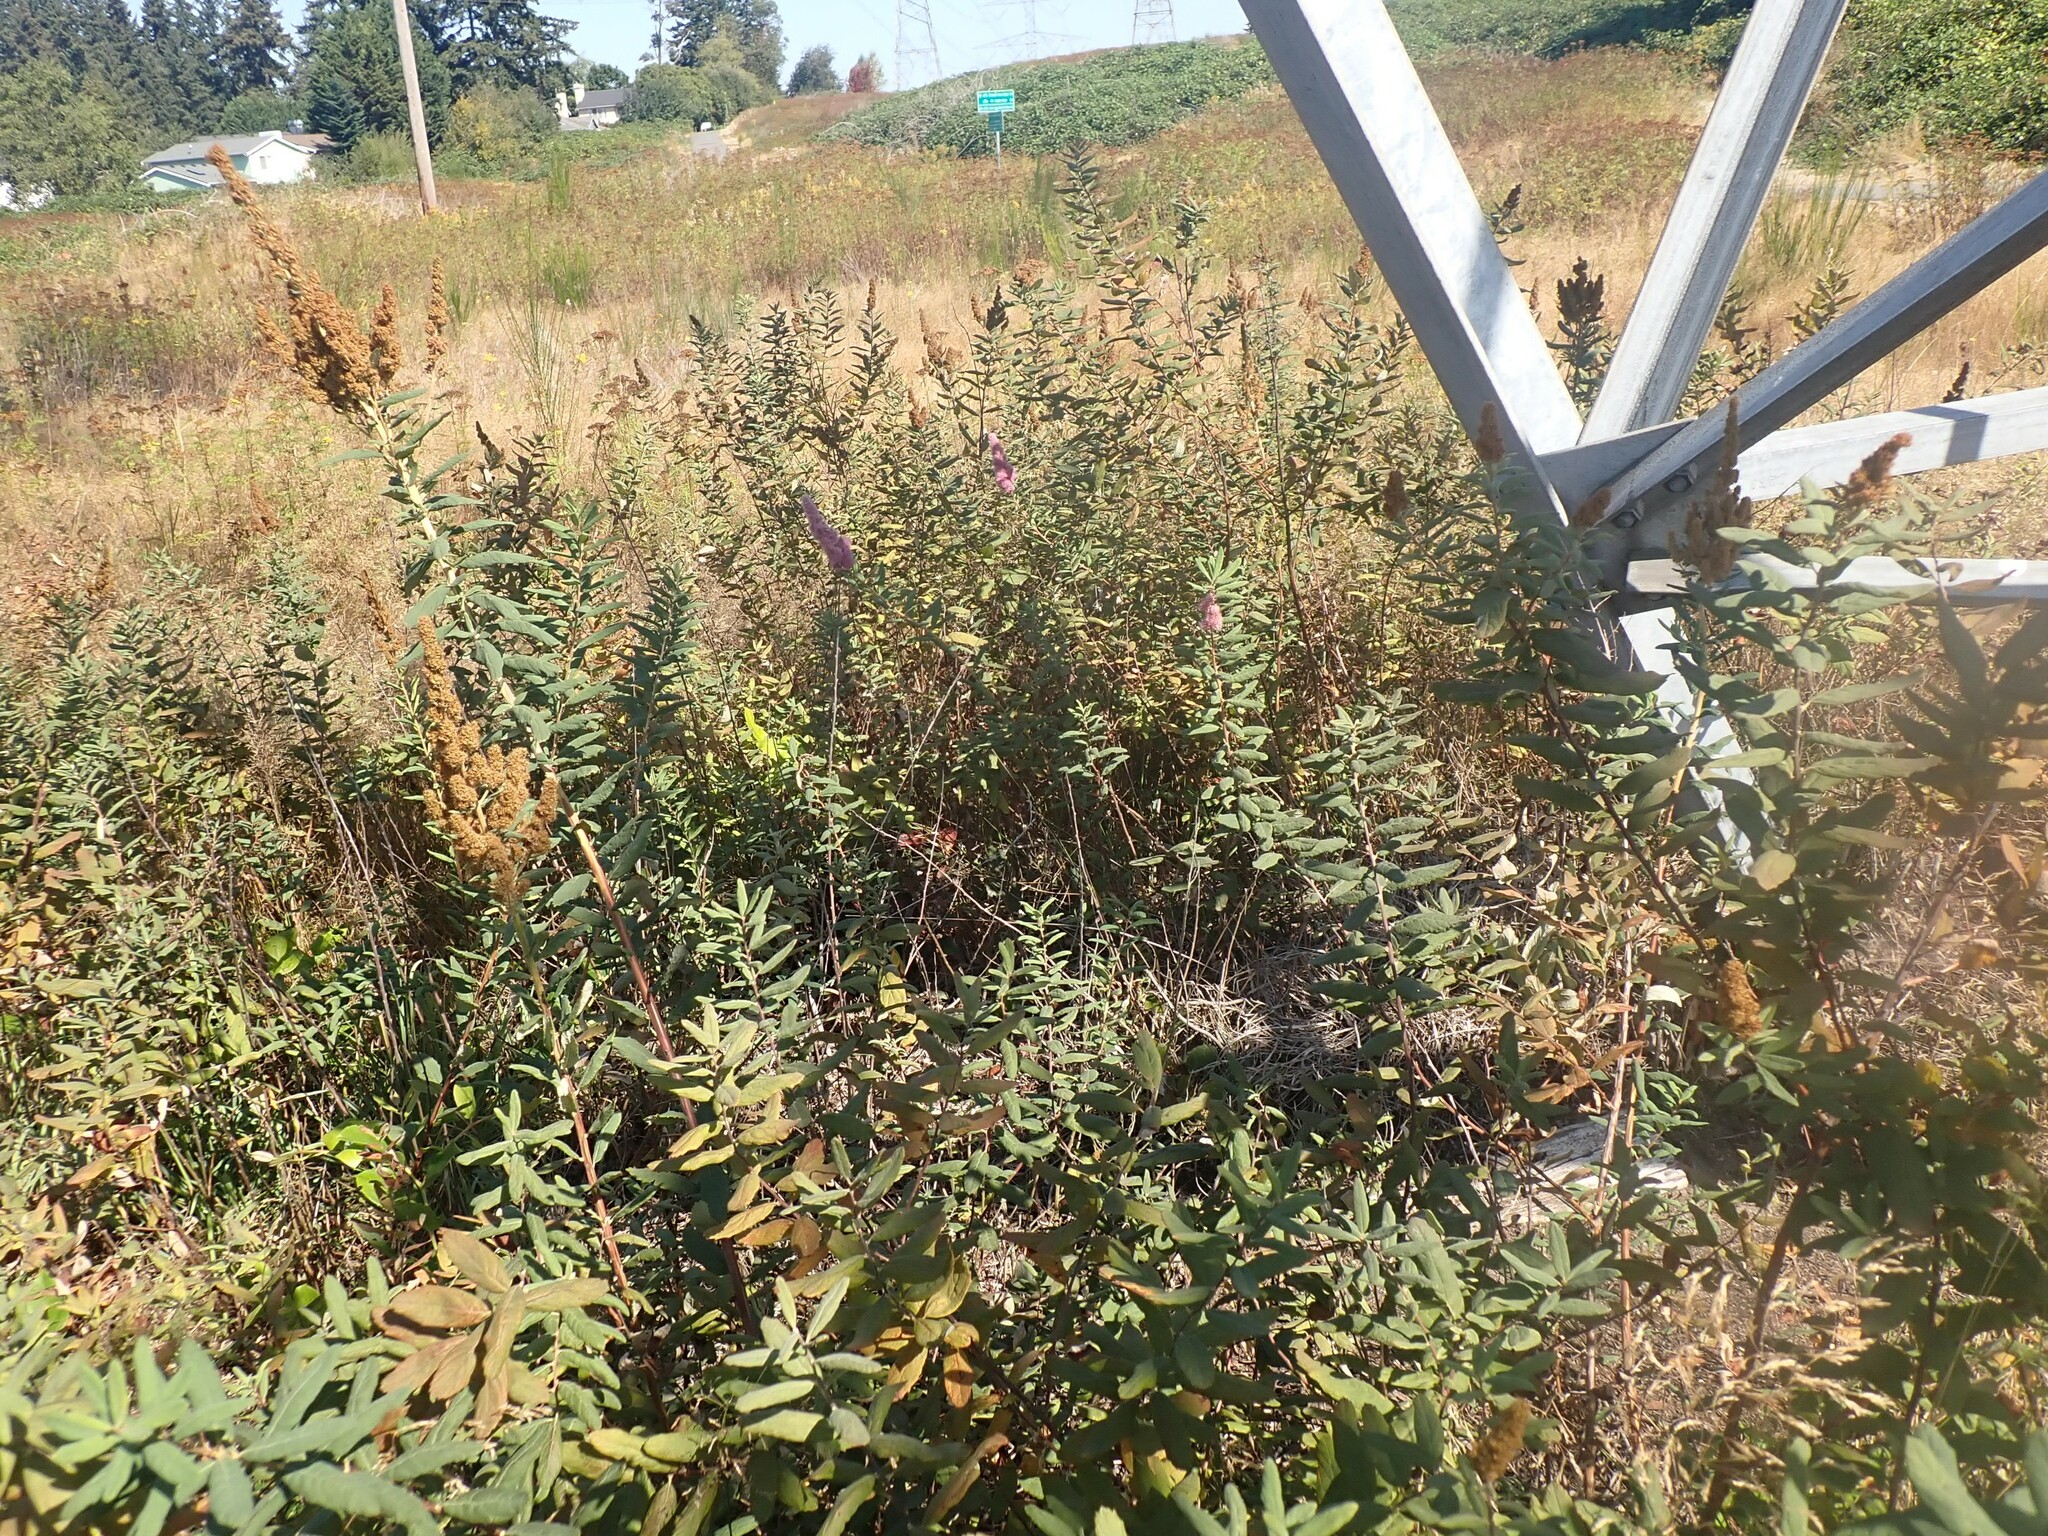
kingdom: Plantae
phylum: Tracheophyta
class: Magnoliopsida
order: Rosales
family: Rosaceae
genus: Spiraea
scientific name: Spiraea douglasii
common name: Steeplebush
